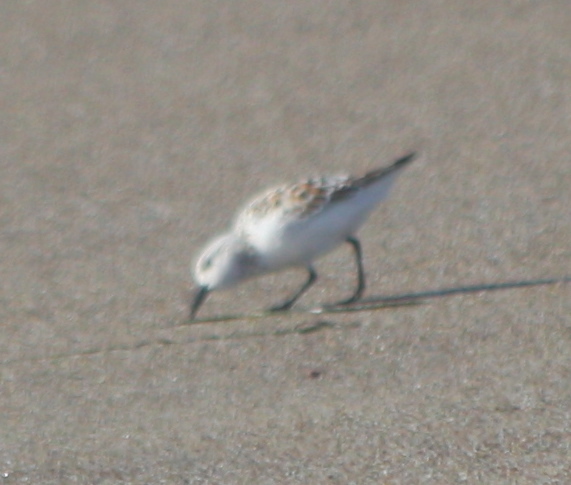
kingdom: Animalia
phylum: Chordata
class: Aves
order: Charadriiformes
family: Scolopacidae
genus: Calidris
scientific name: Calidris alba
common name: Sanderling
